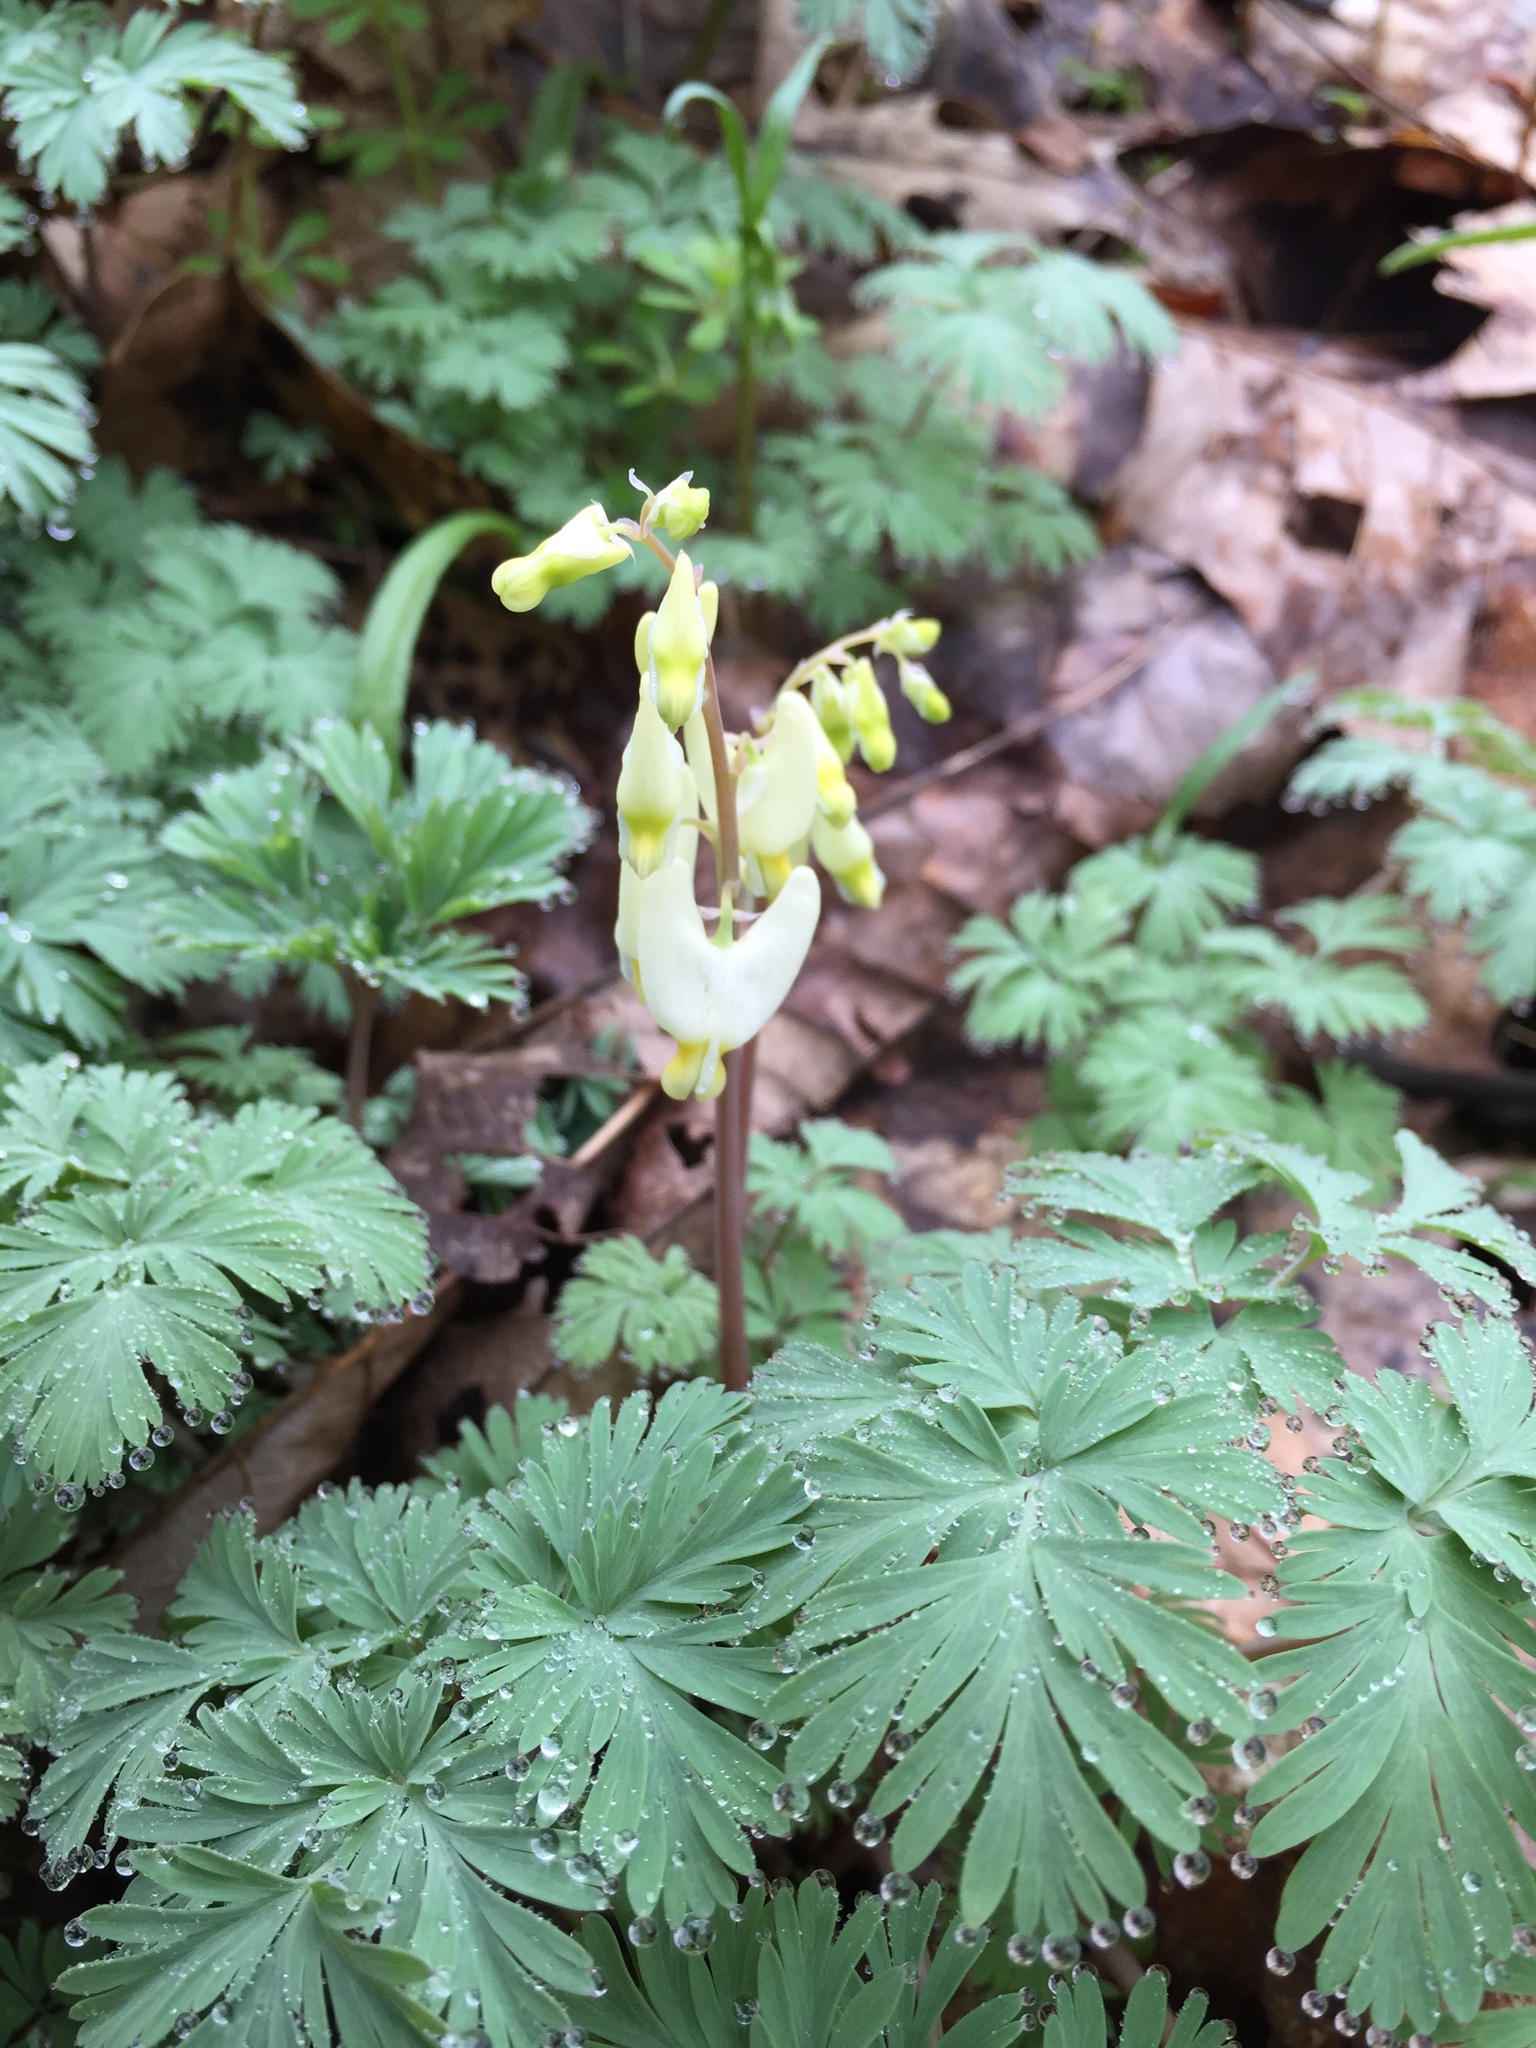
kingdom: Plantae
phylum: Tracheophyta
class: Magnoliopsida
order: Ranunculales
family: Papaveraceae
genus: Dicentra
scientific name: Dicentra cucullaria
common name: Dutchman's breeches
